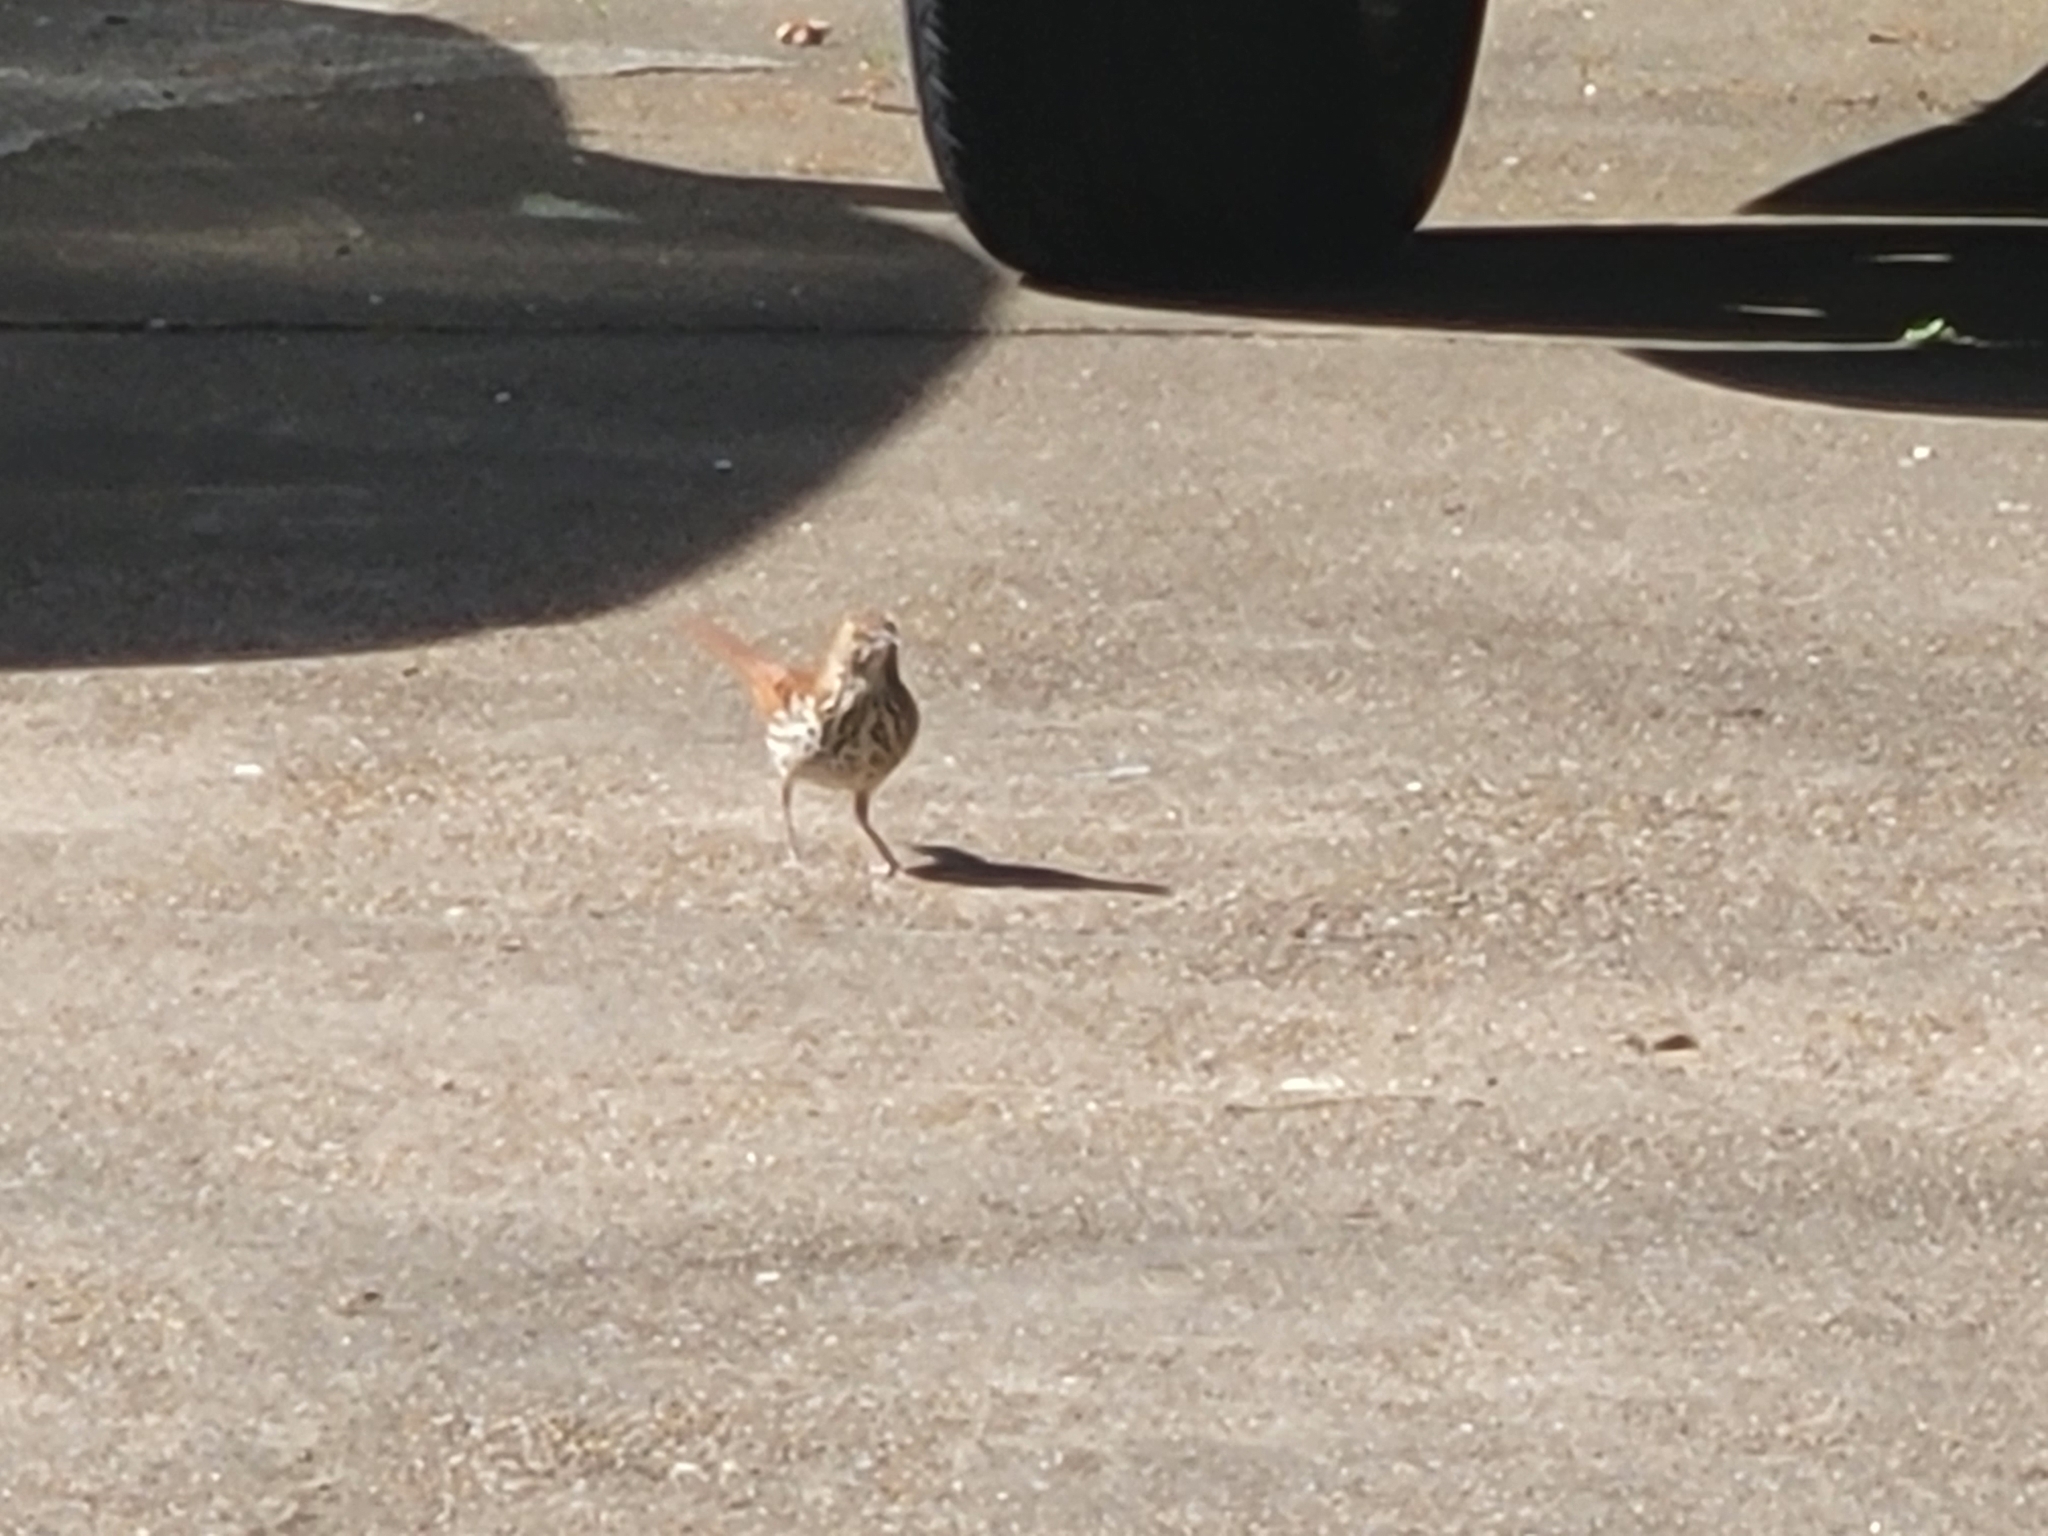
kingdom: Animalia
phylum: Chordata
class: Aves
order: Passeriformes
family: Mimidae
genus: Toxostoma
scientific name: Toxostoma rufum
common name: Brown thrasher
